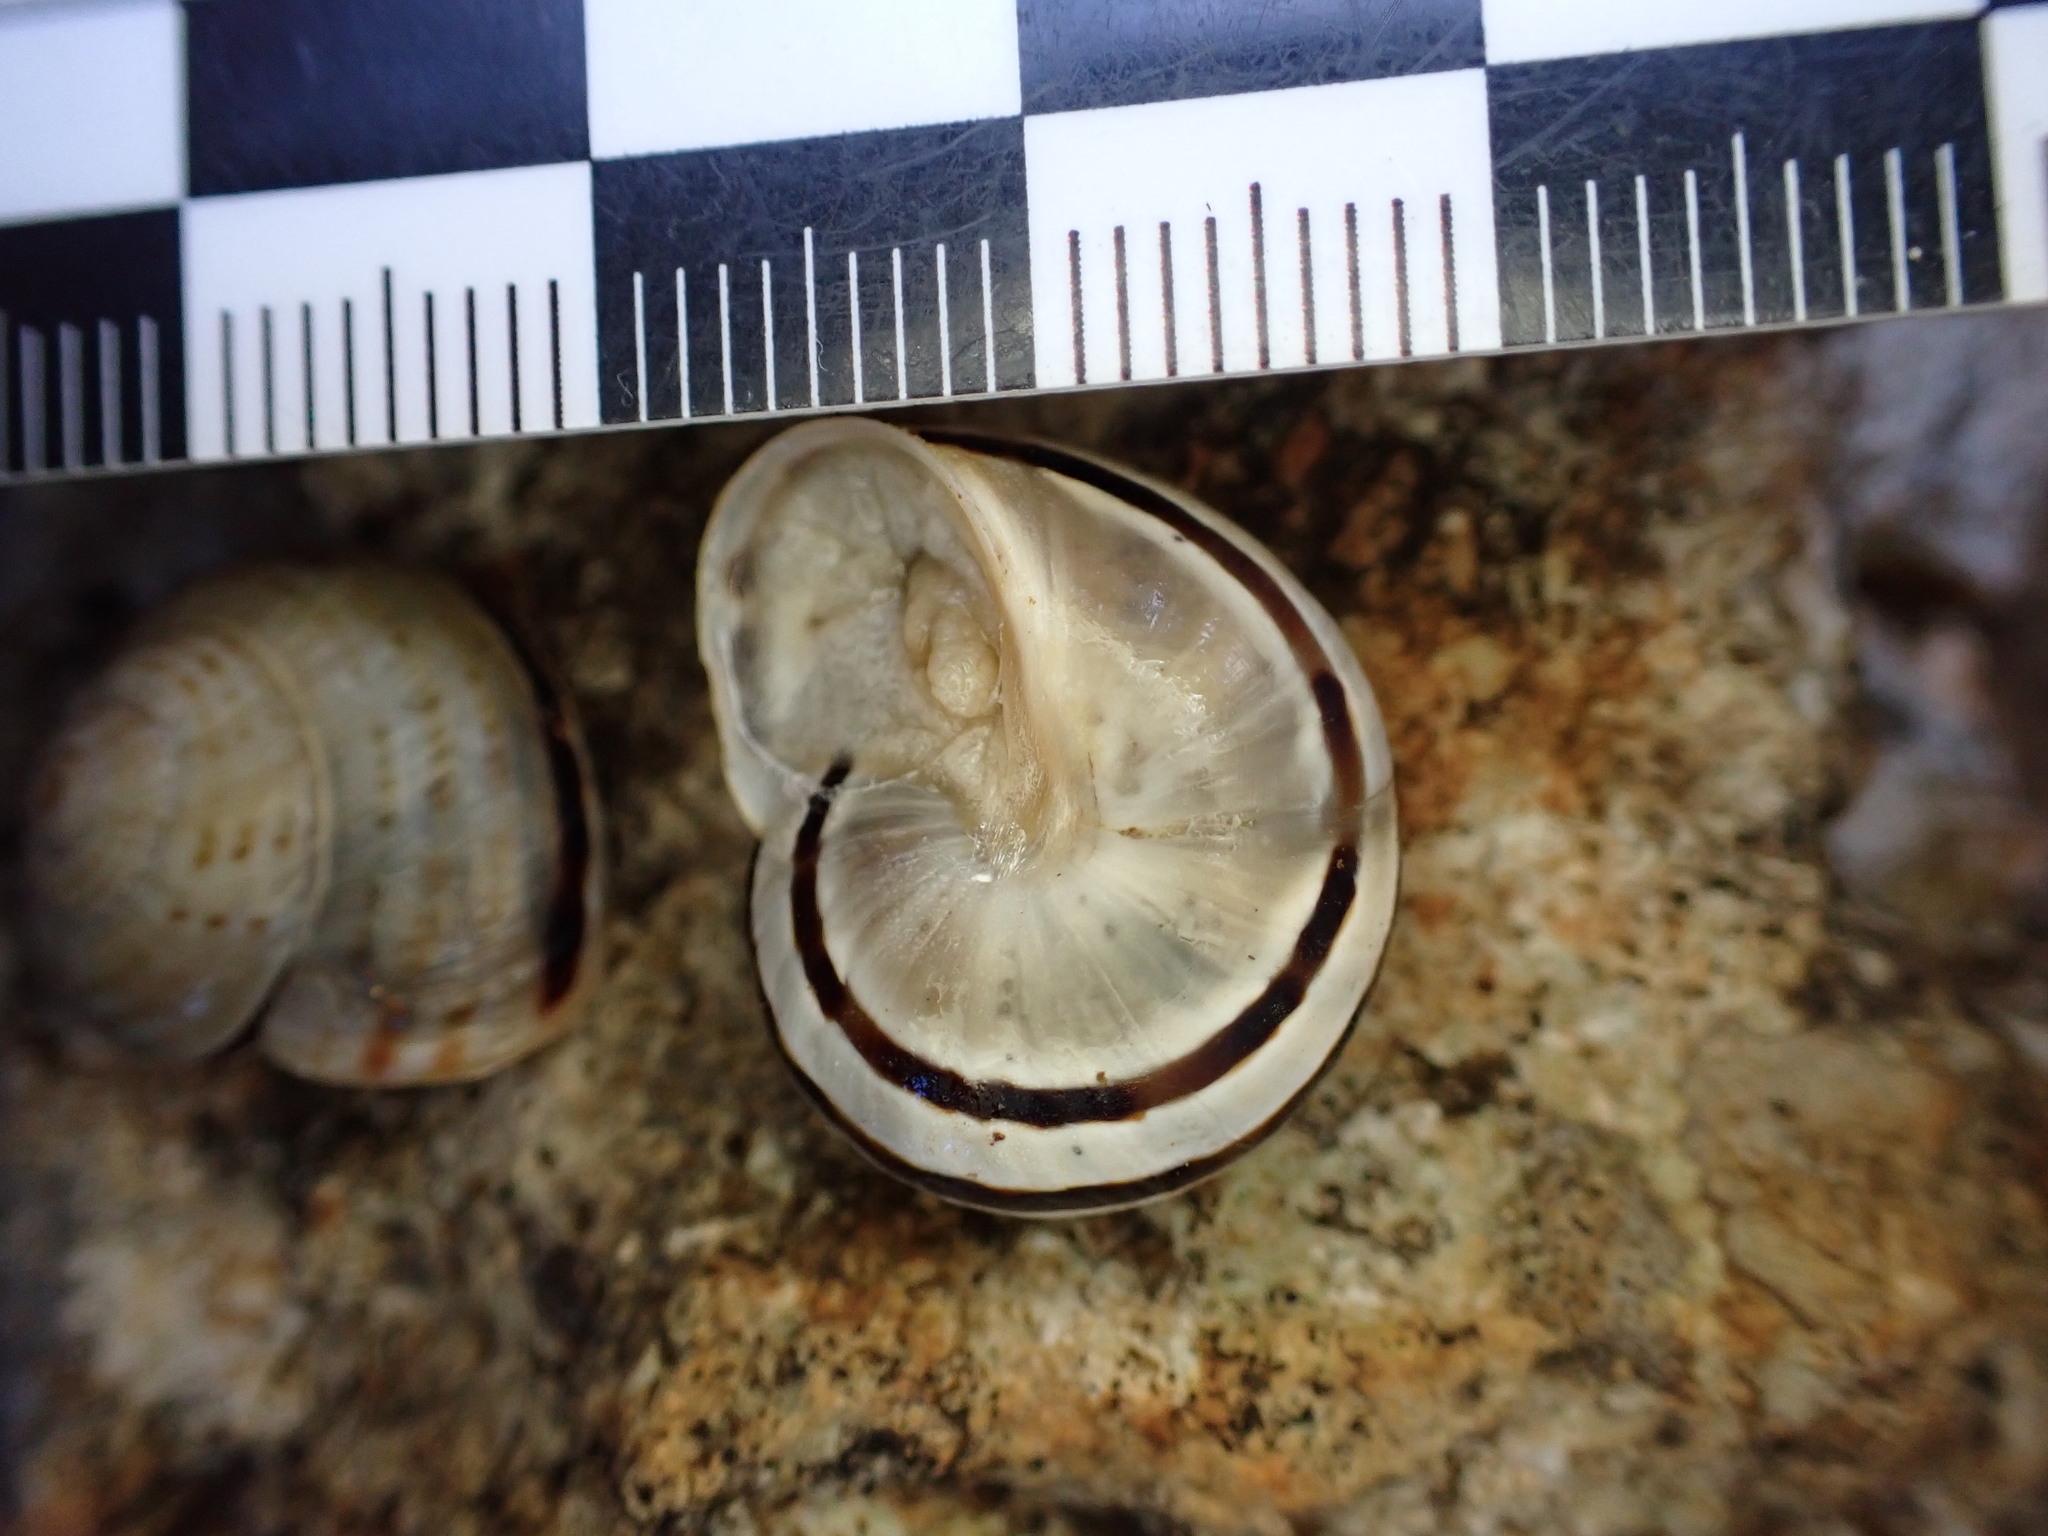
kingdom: Animalia
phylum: Mollusca
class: Gastropoda
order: Stylommatophora
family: Helicidae
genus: Pseudotachea
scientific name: Pseudotachea splendida
